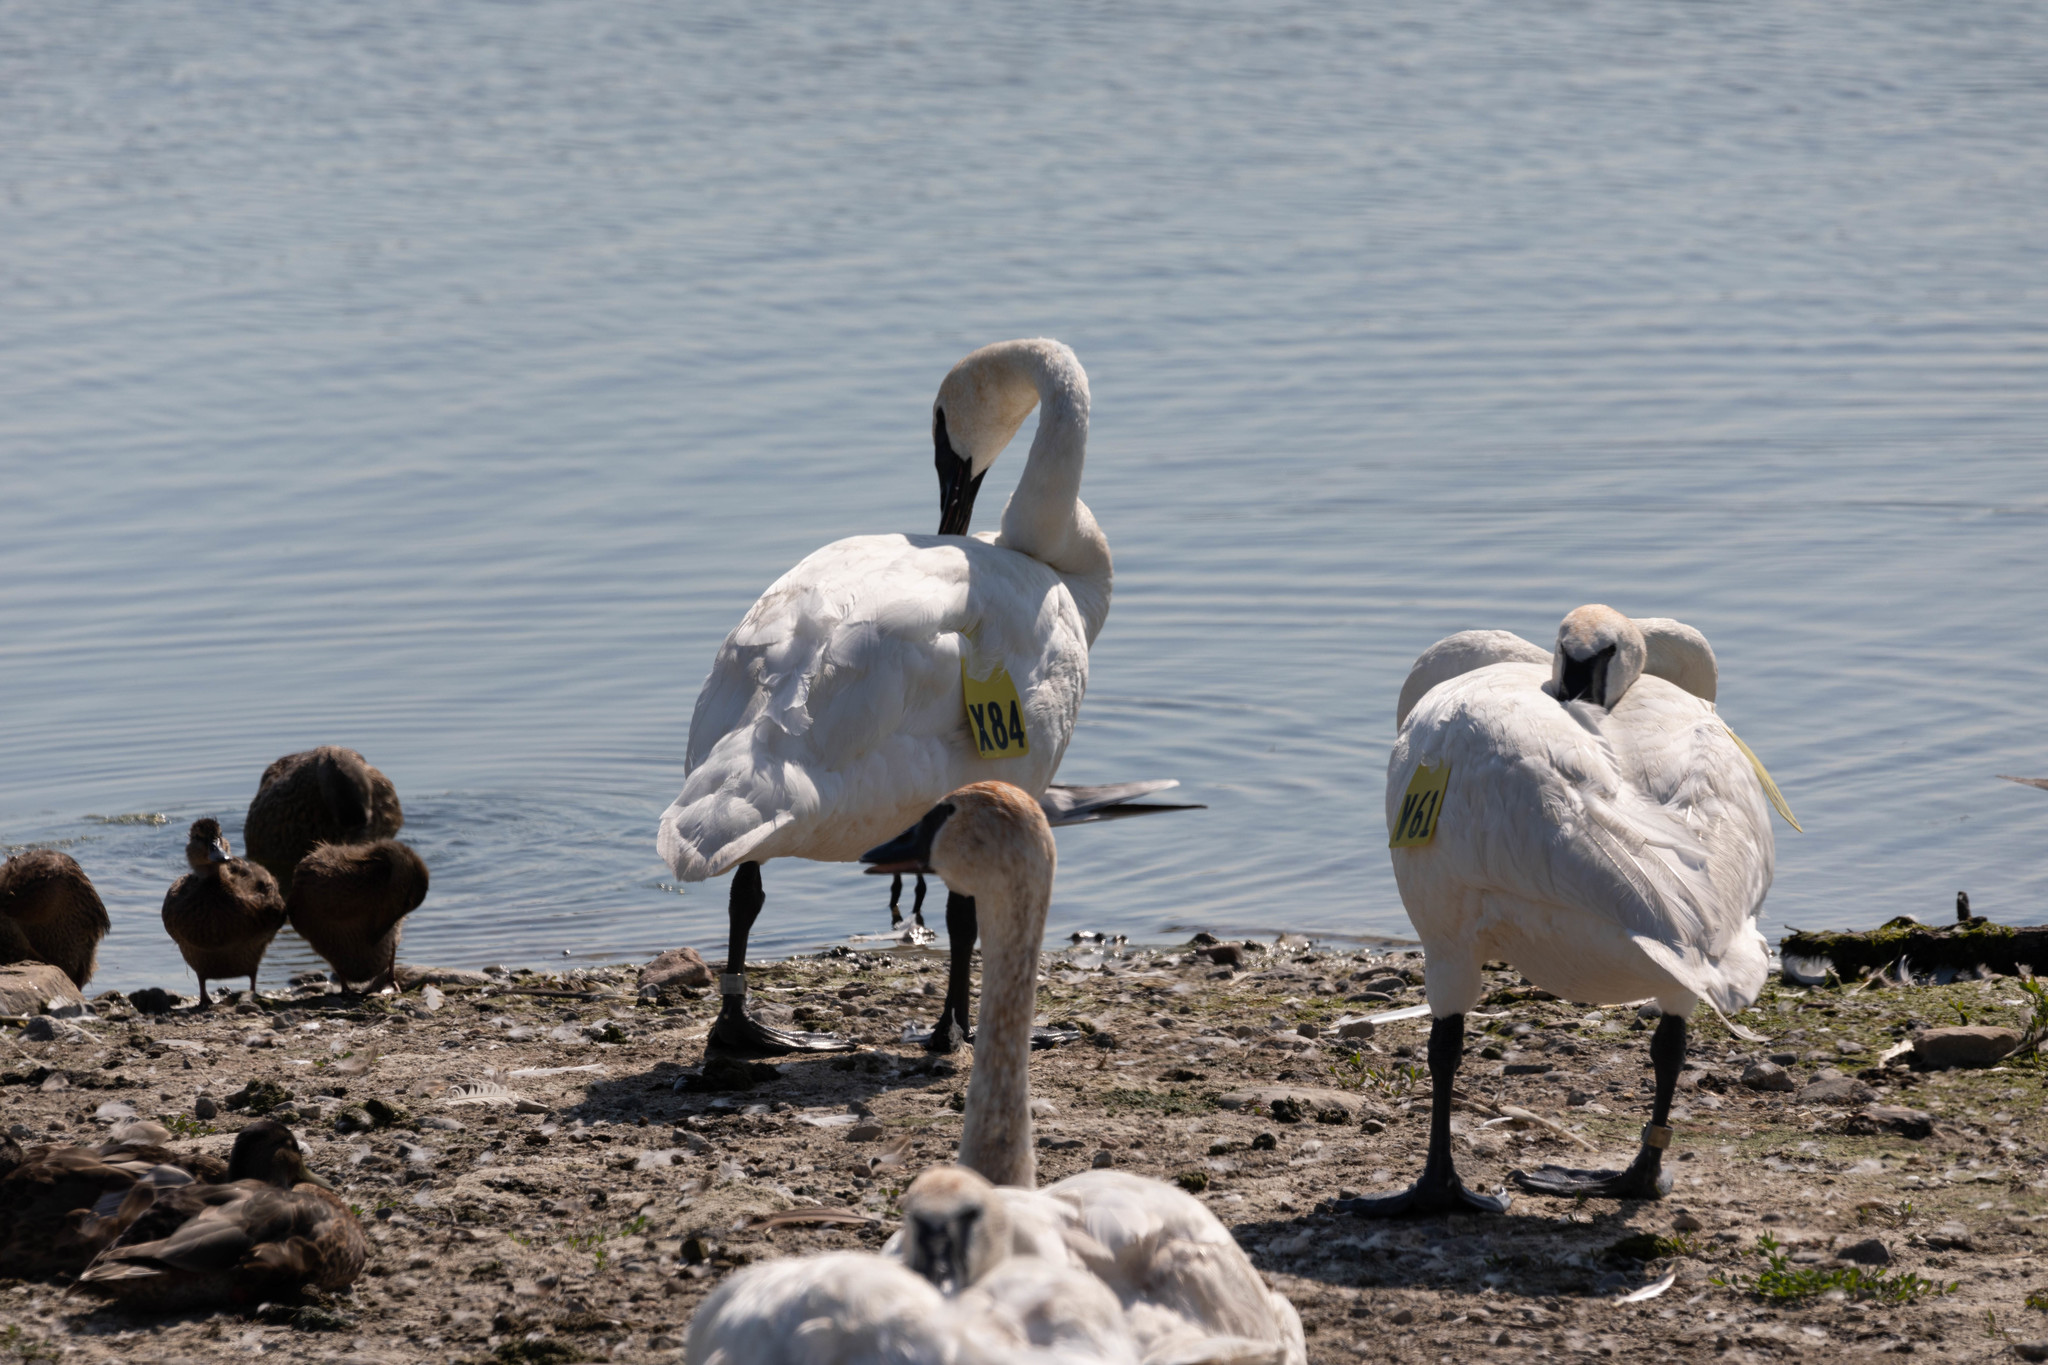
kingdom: Animalia
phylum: Chordata
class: Aves
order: Anseriformes
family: Anatidae
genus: Cygnus
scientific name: Cygnus buccinator
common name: Trumpeter swan
